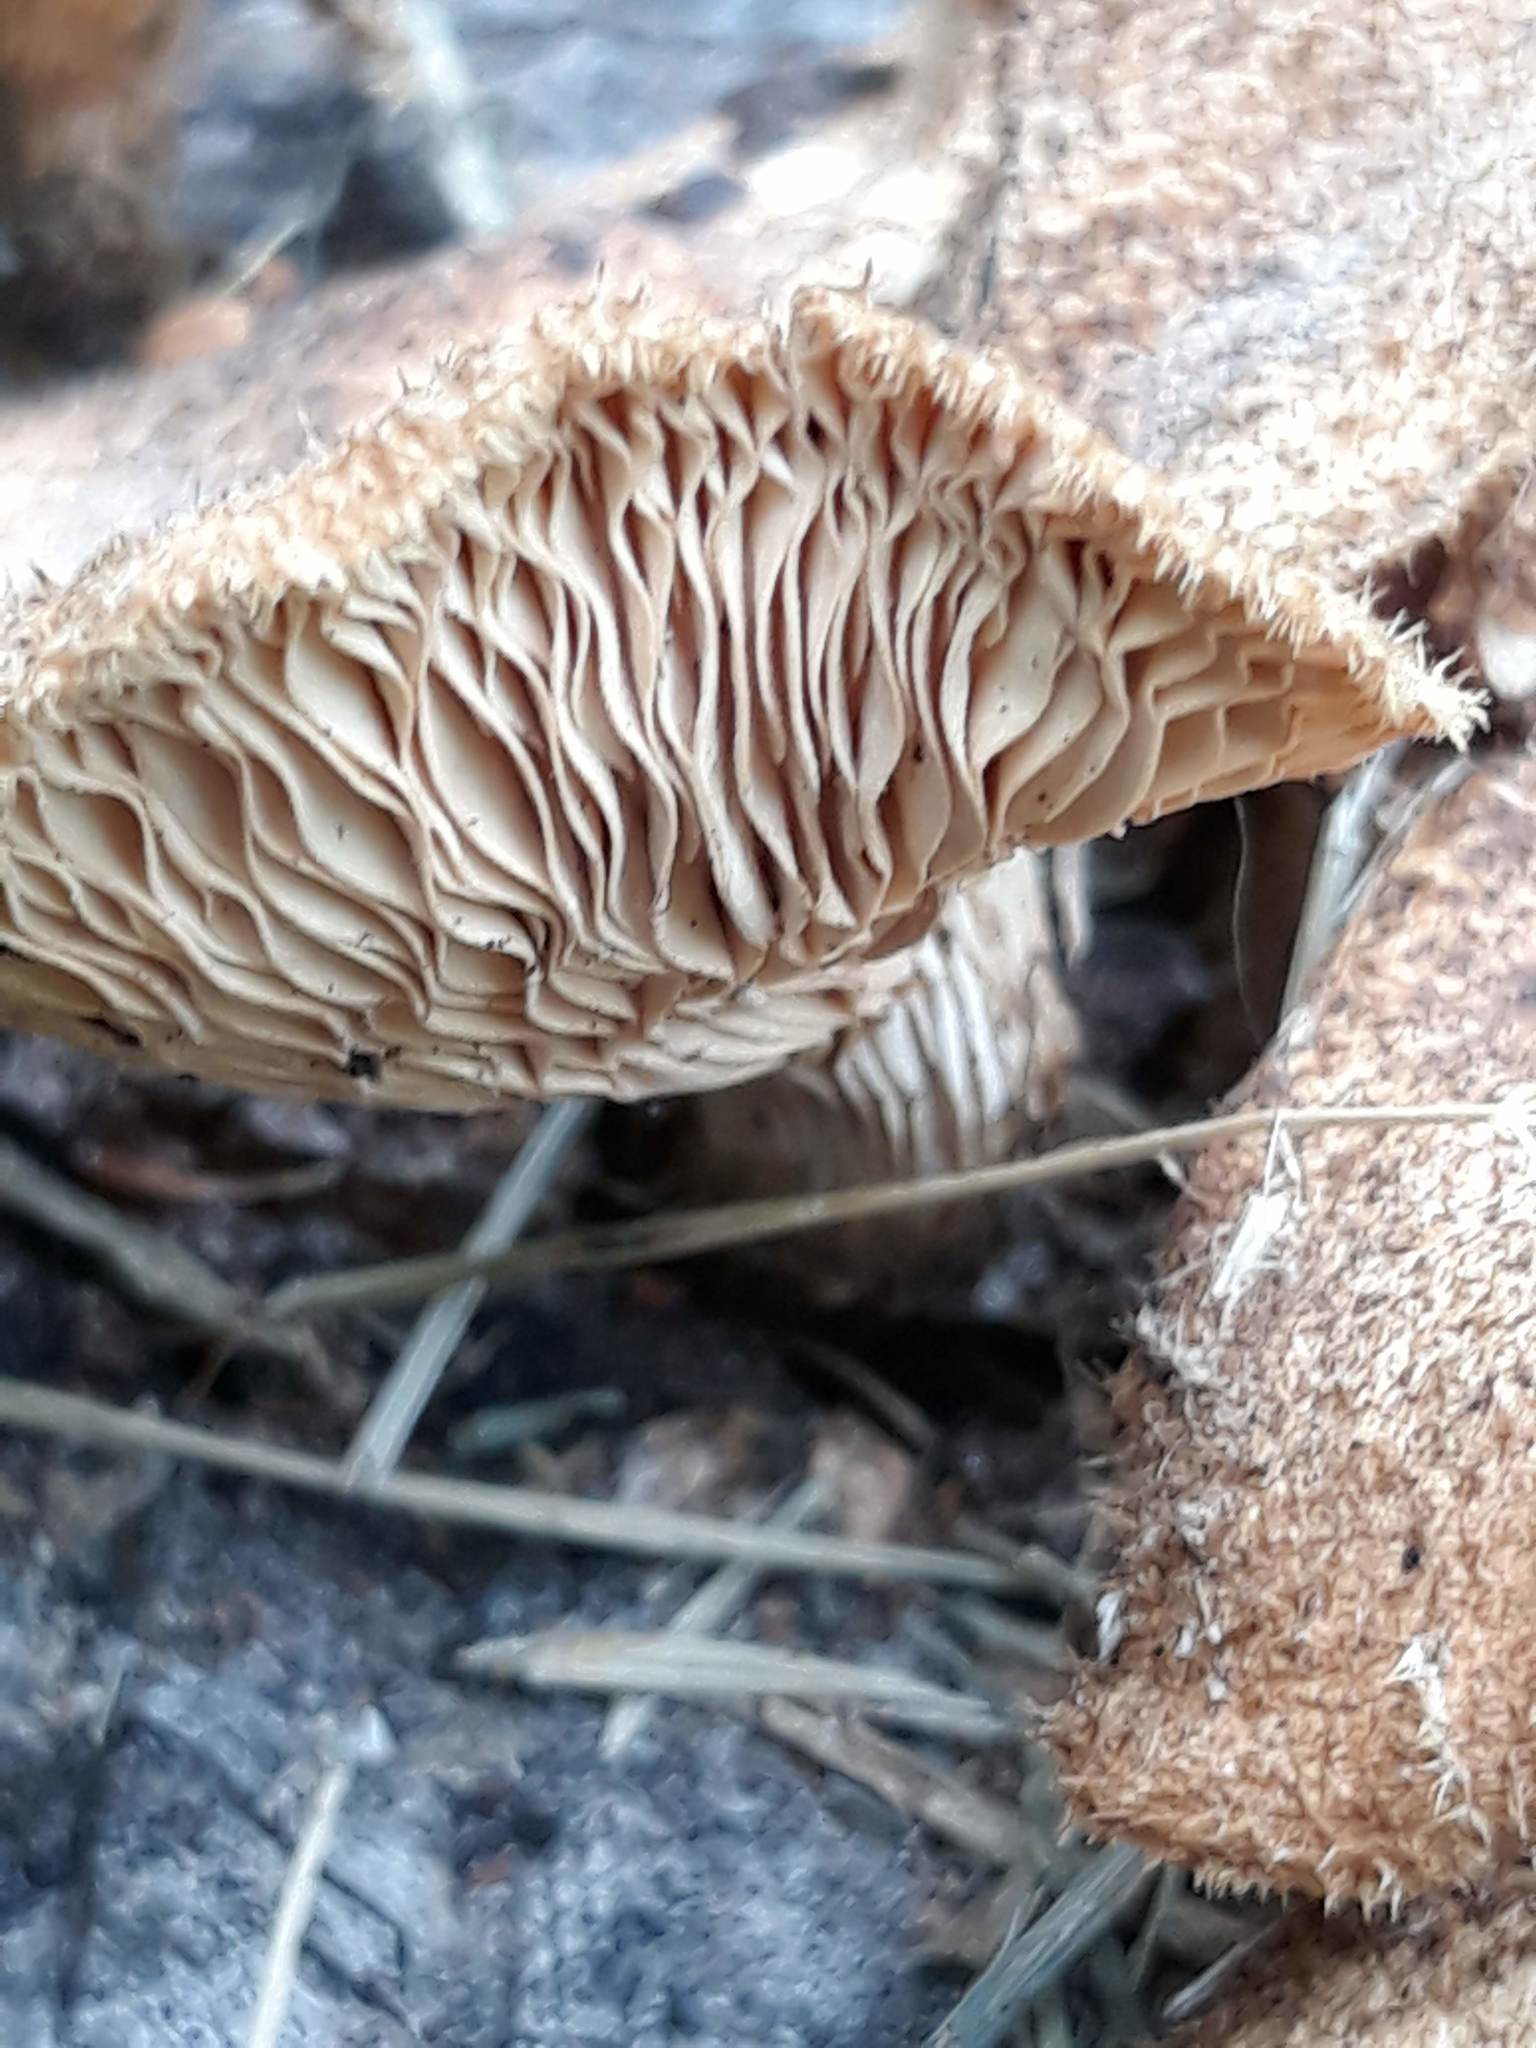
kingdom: Fungi
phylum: Basidiomycota
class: Agaricomycetes
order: Agaricales
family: Mycenaceae
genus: Panellus
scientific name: Panellus stipticus
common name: Bitter oysterling
